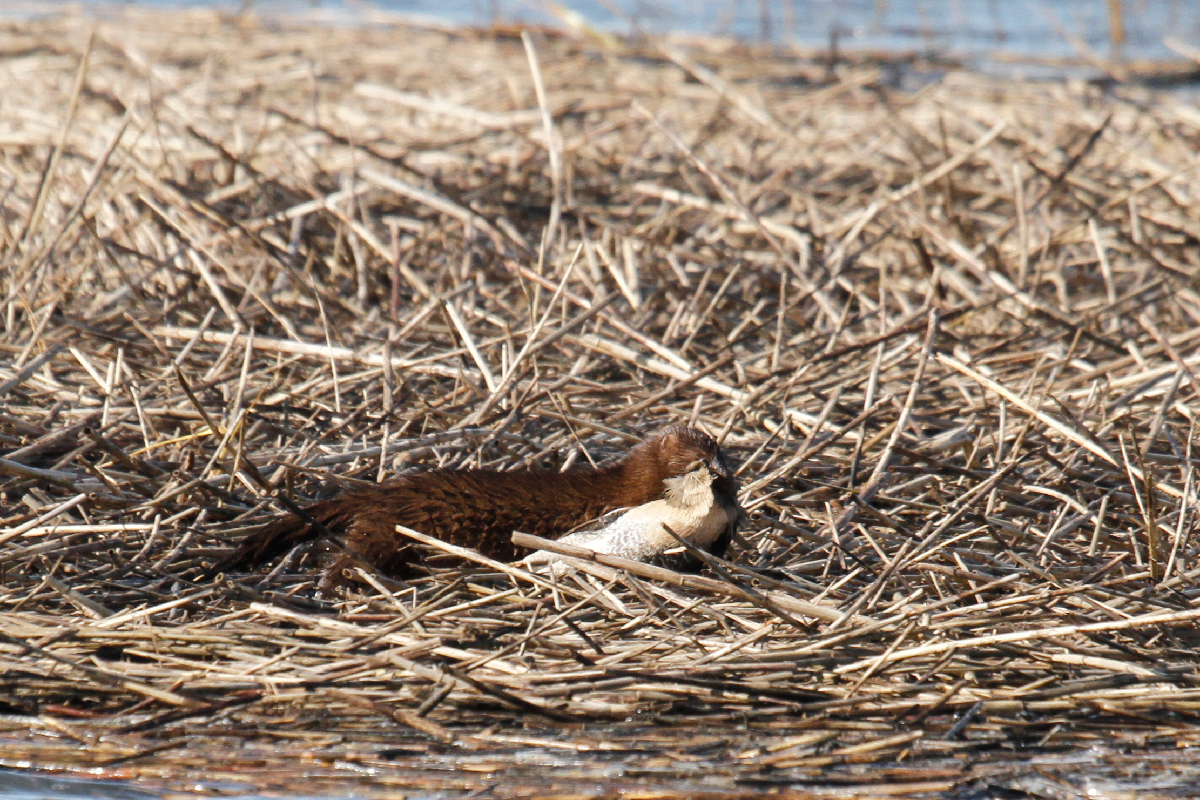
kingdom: Animalia
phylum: Chordata
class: Mammalia
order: Carnivora
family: Mustelidae
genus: Mustela
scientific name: Mustela
